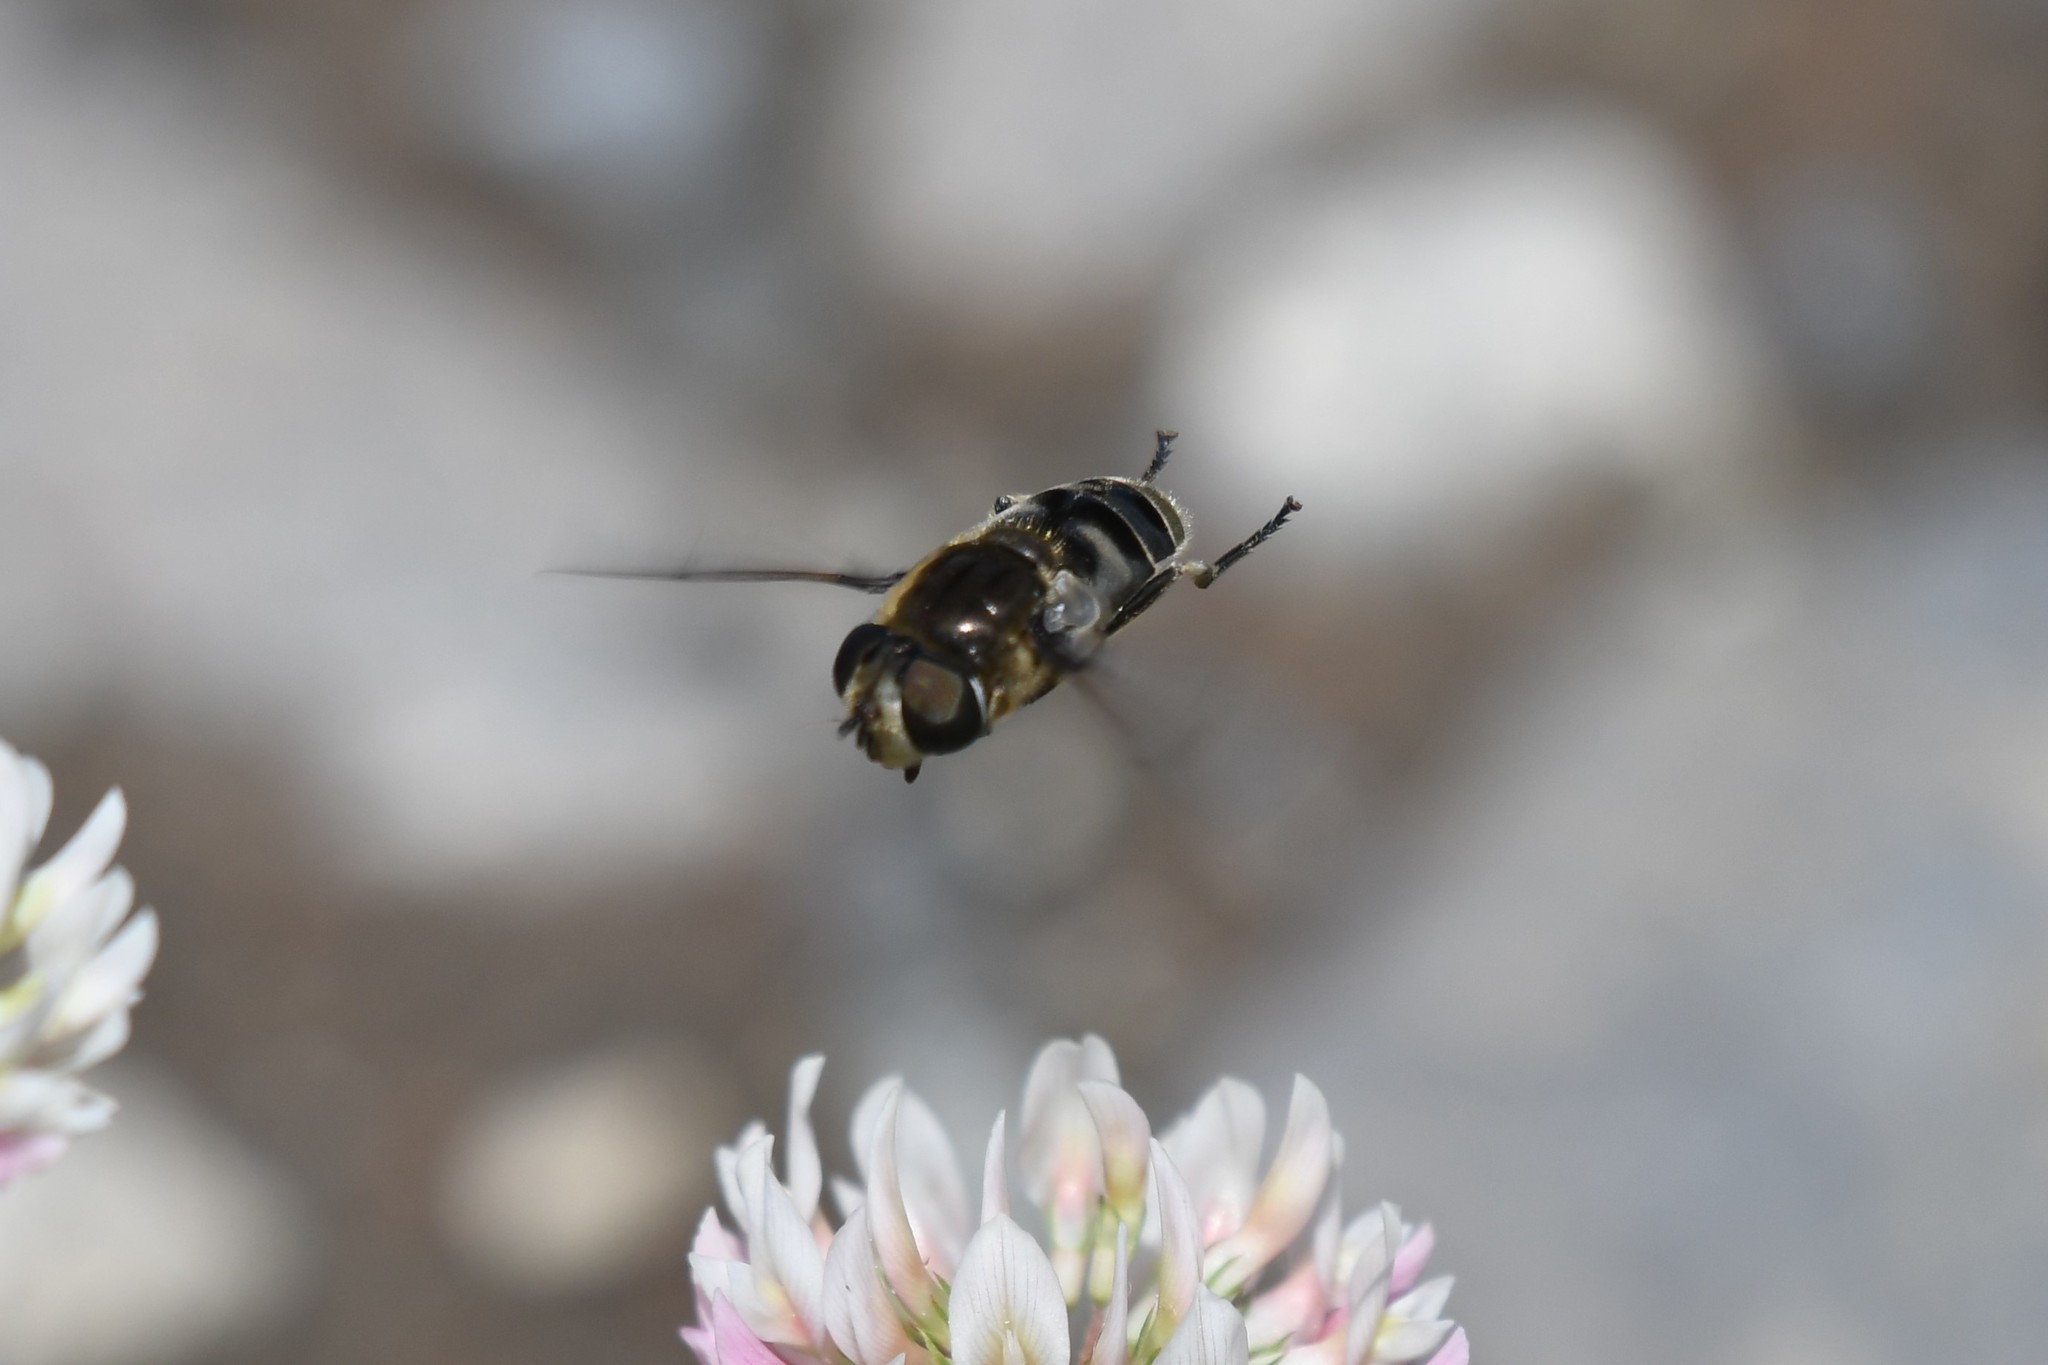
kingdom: Animalia
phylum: Arthropoda
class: Insecta
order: Diptera
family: Syrphidae
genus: Eristalis
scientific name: Eristalis dimidiata
